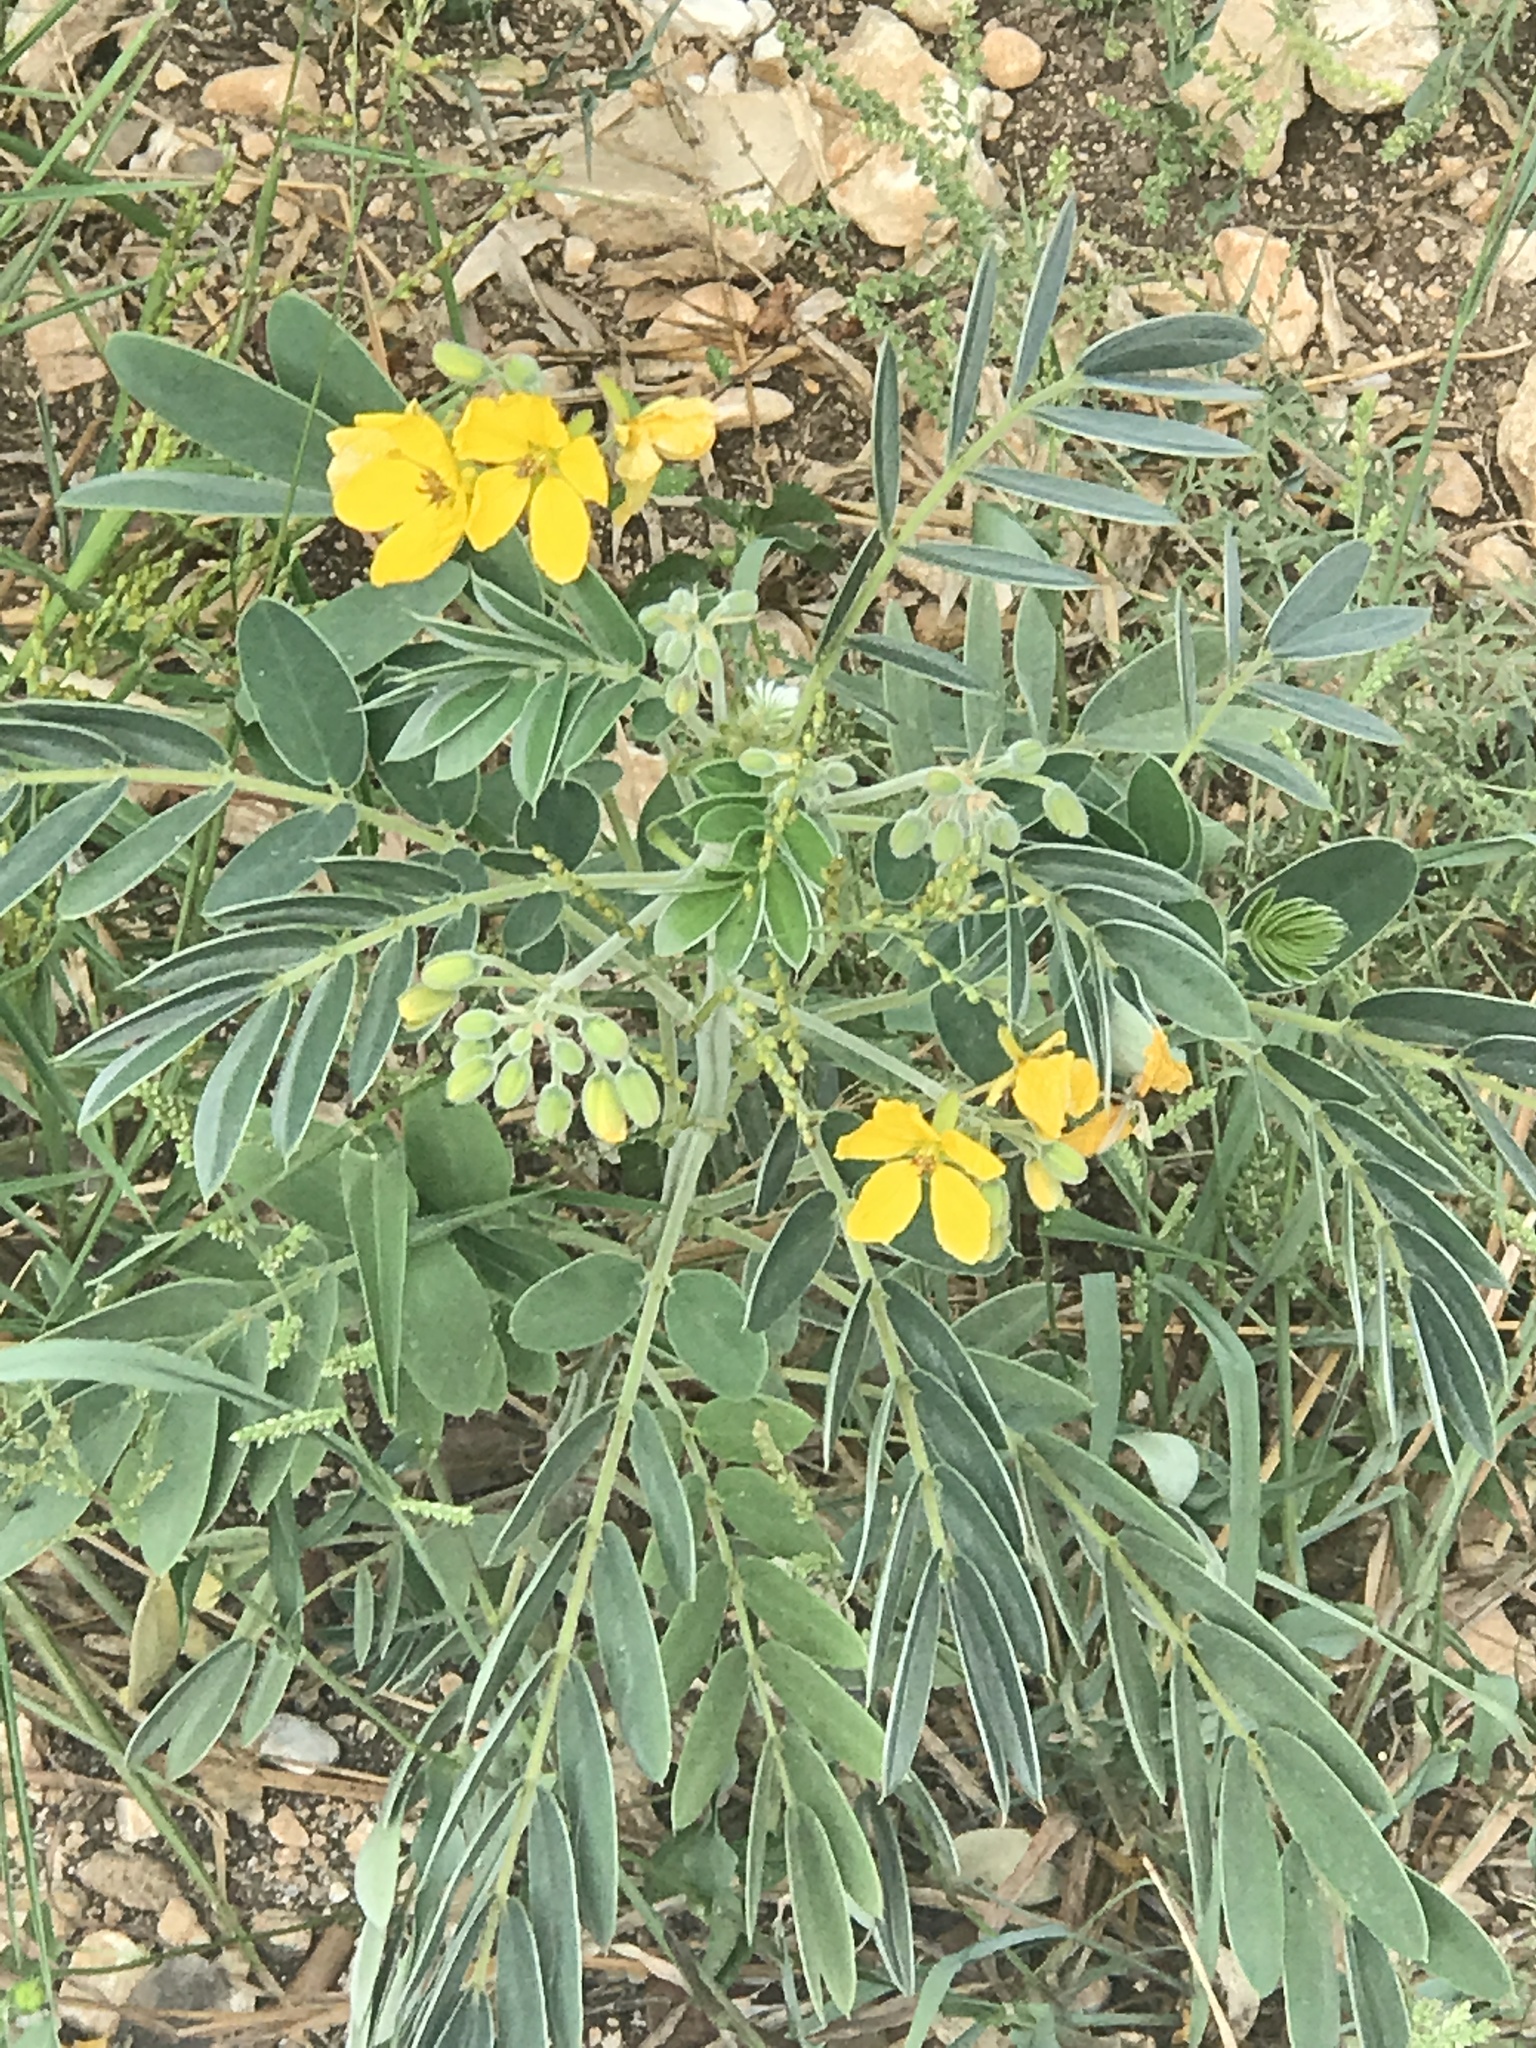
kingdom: Plantae
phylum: Tracheophyta
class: Magnoliopsida
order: Fabales
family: Fabaceae
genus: Senna
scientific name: Senna lindheimeriana
